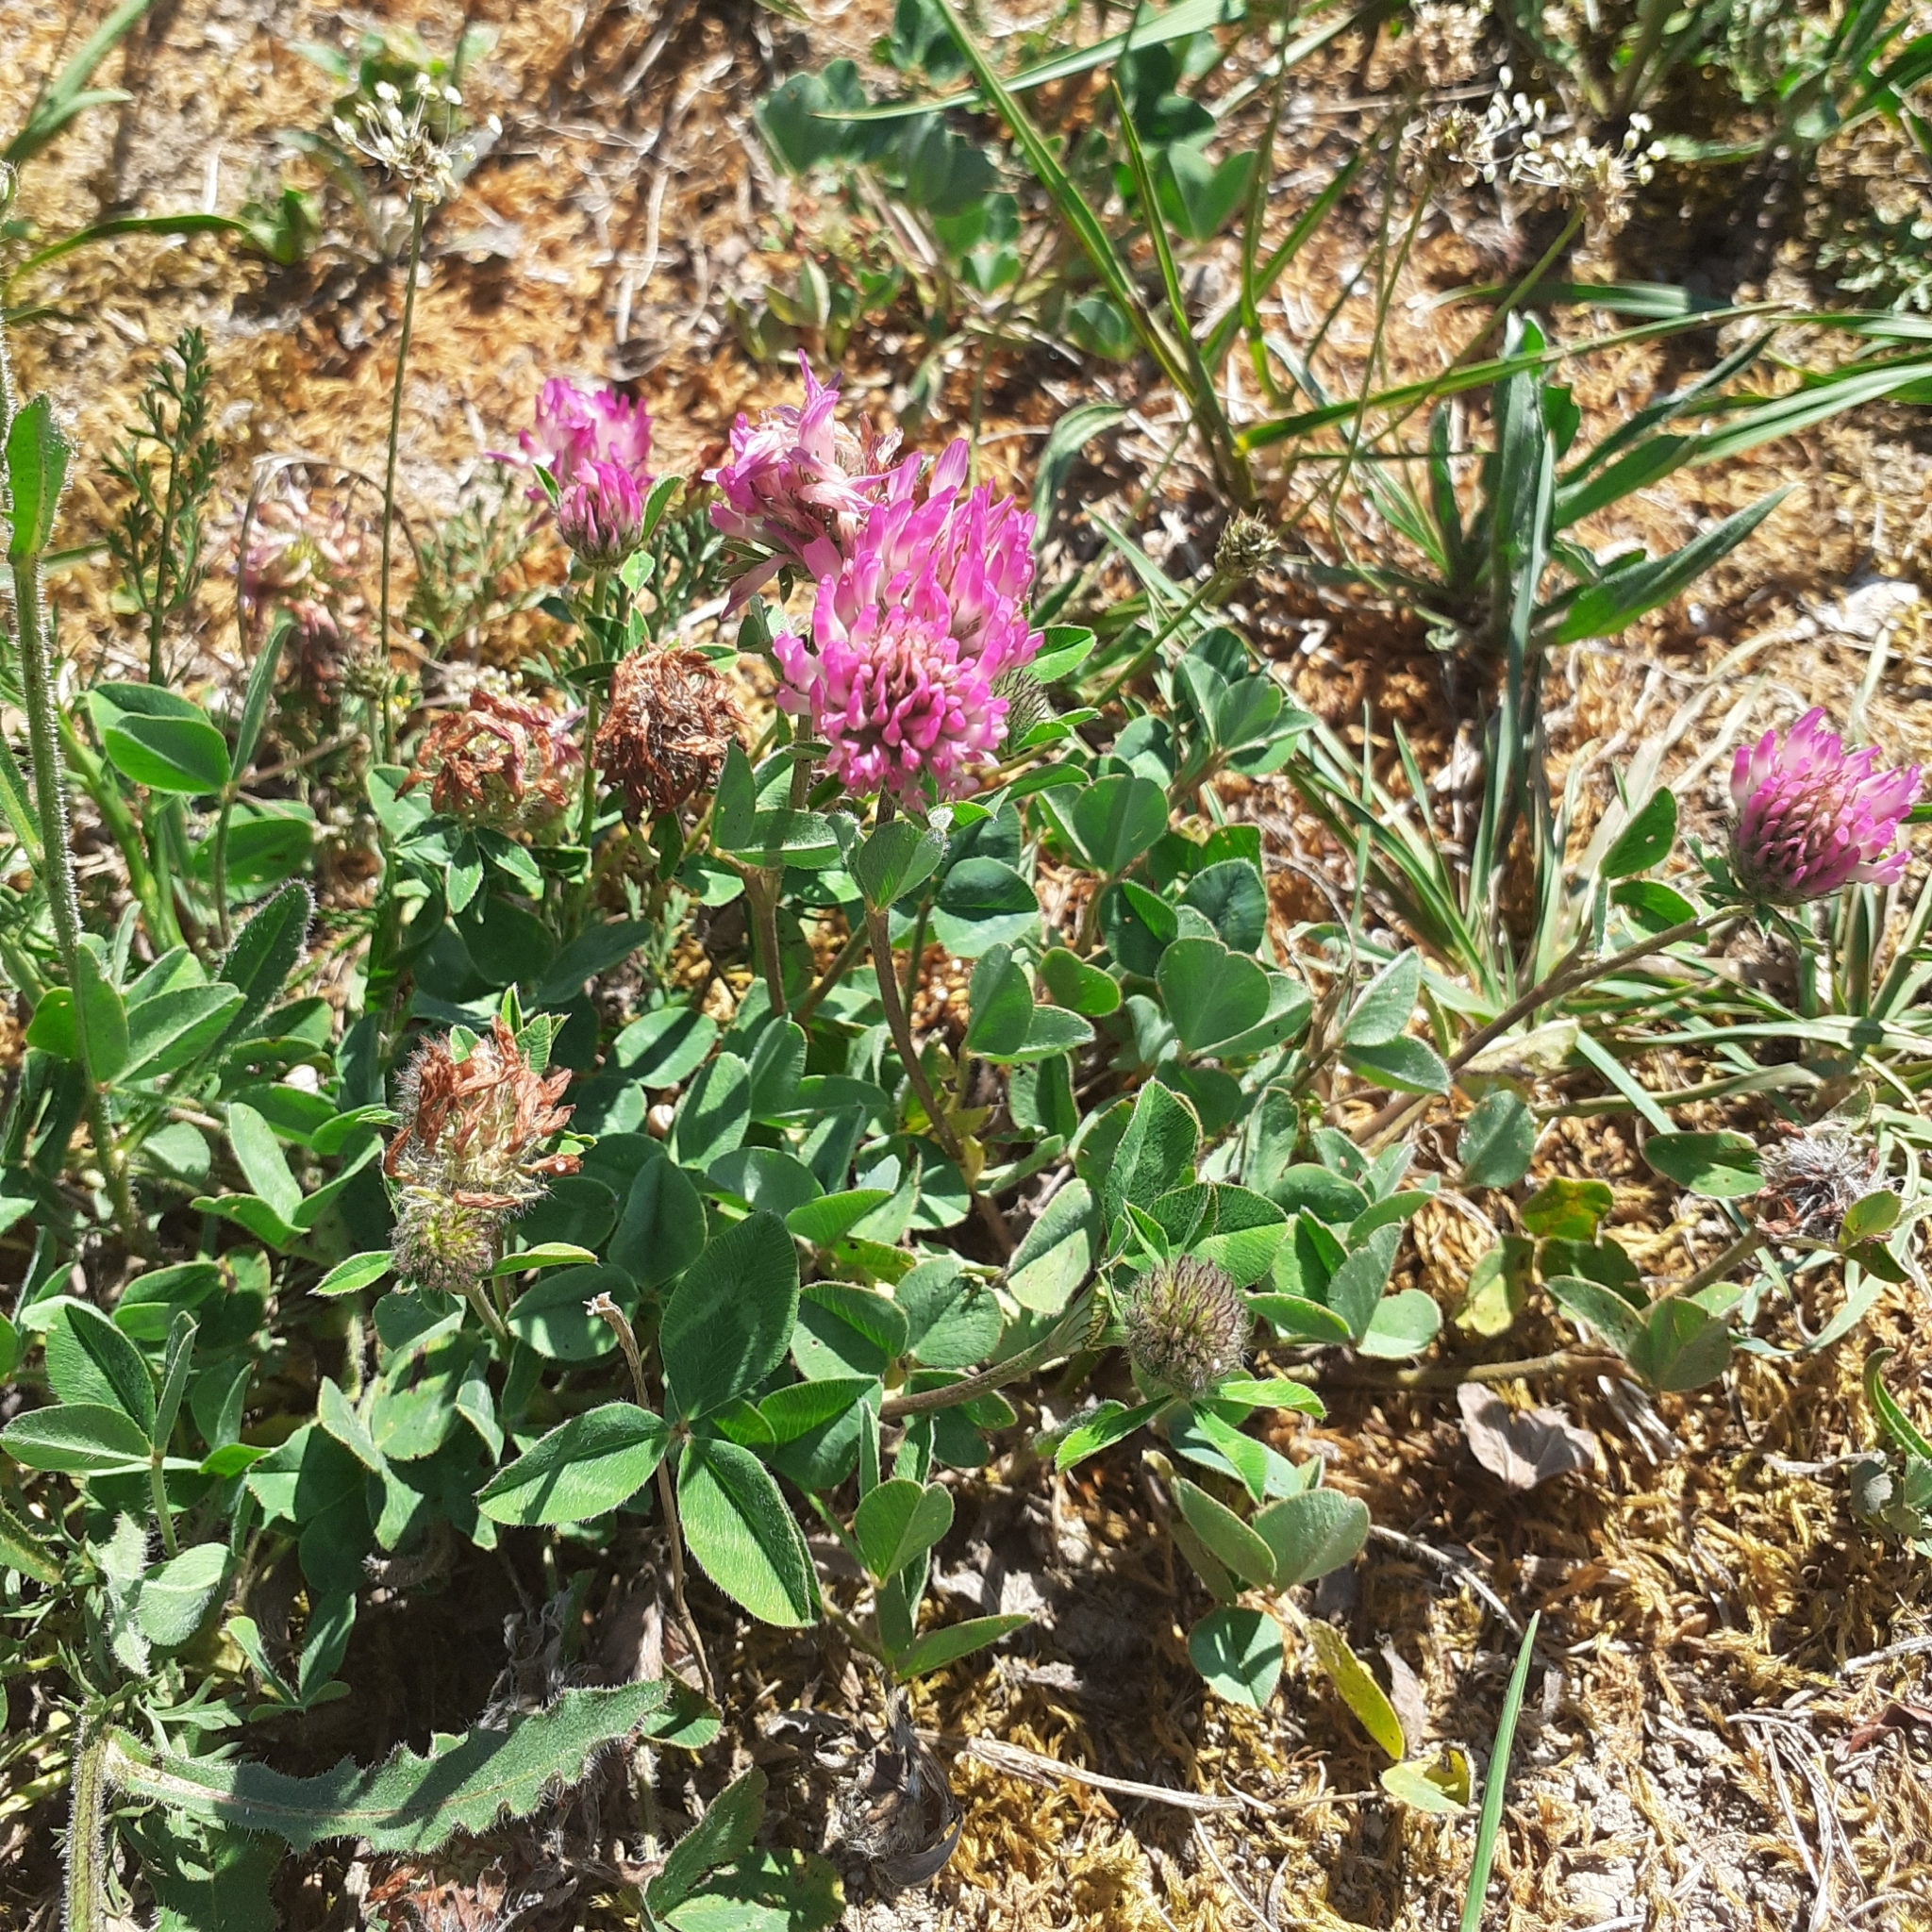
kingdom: Plantae
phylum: Tracheophyta
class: Magnoliopsida
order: Fabales
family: Fabaceae
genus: Trifolium
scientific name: Trifolium pratense
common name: Red clover
